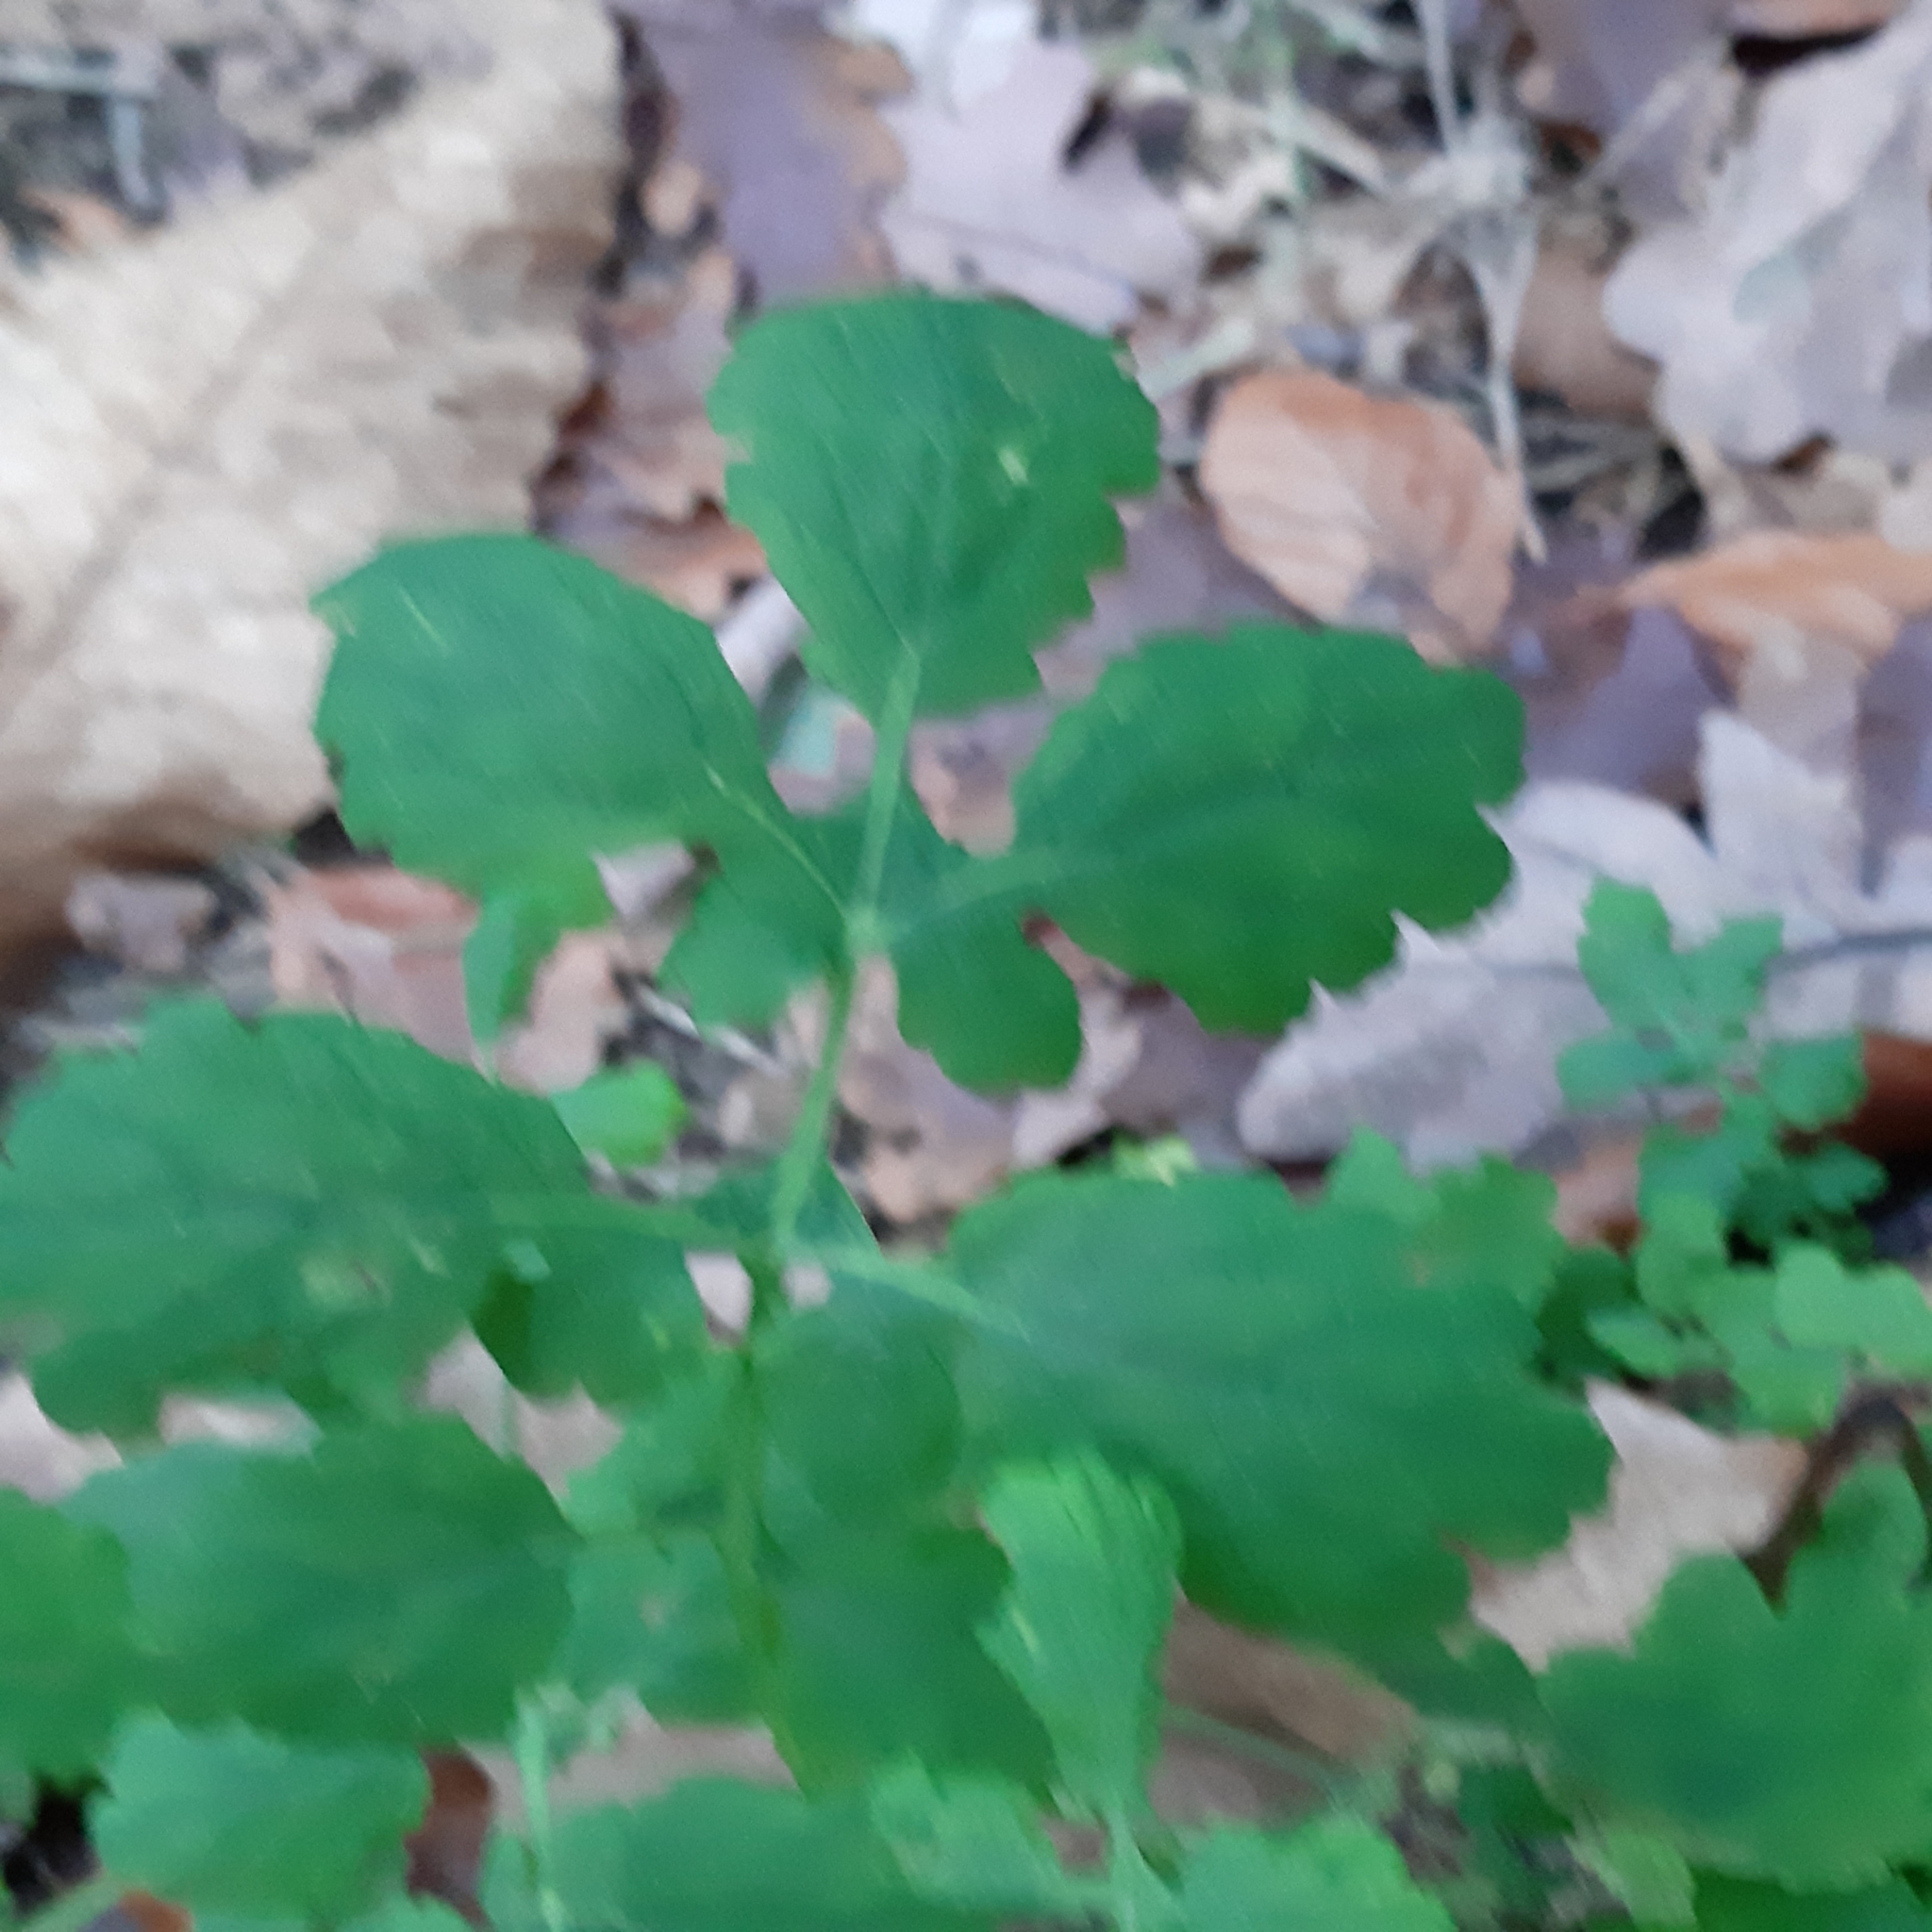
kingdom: Plantae
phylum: Tracheophyta
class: Magnoliopsida
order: Ranunculales
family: Papaveraceae
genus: Chelidonium
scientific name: Chelidonium majus
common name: Greater celandine
